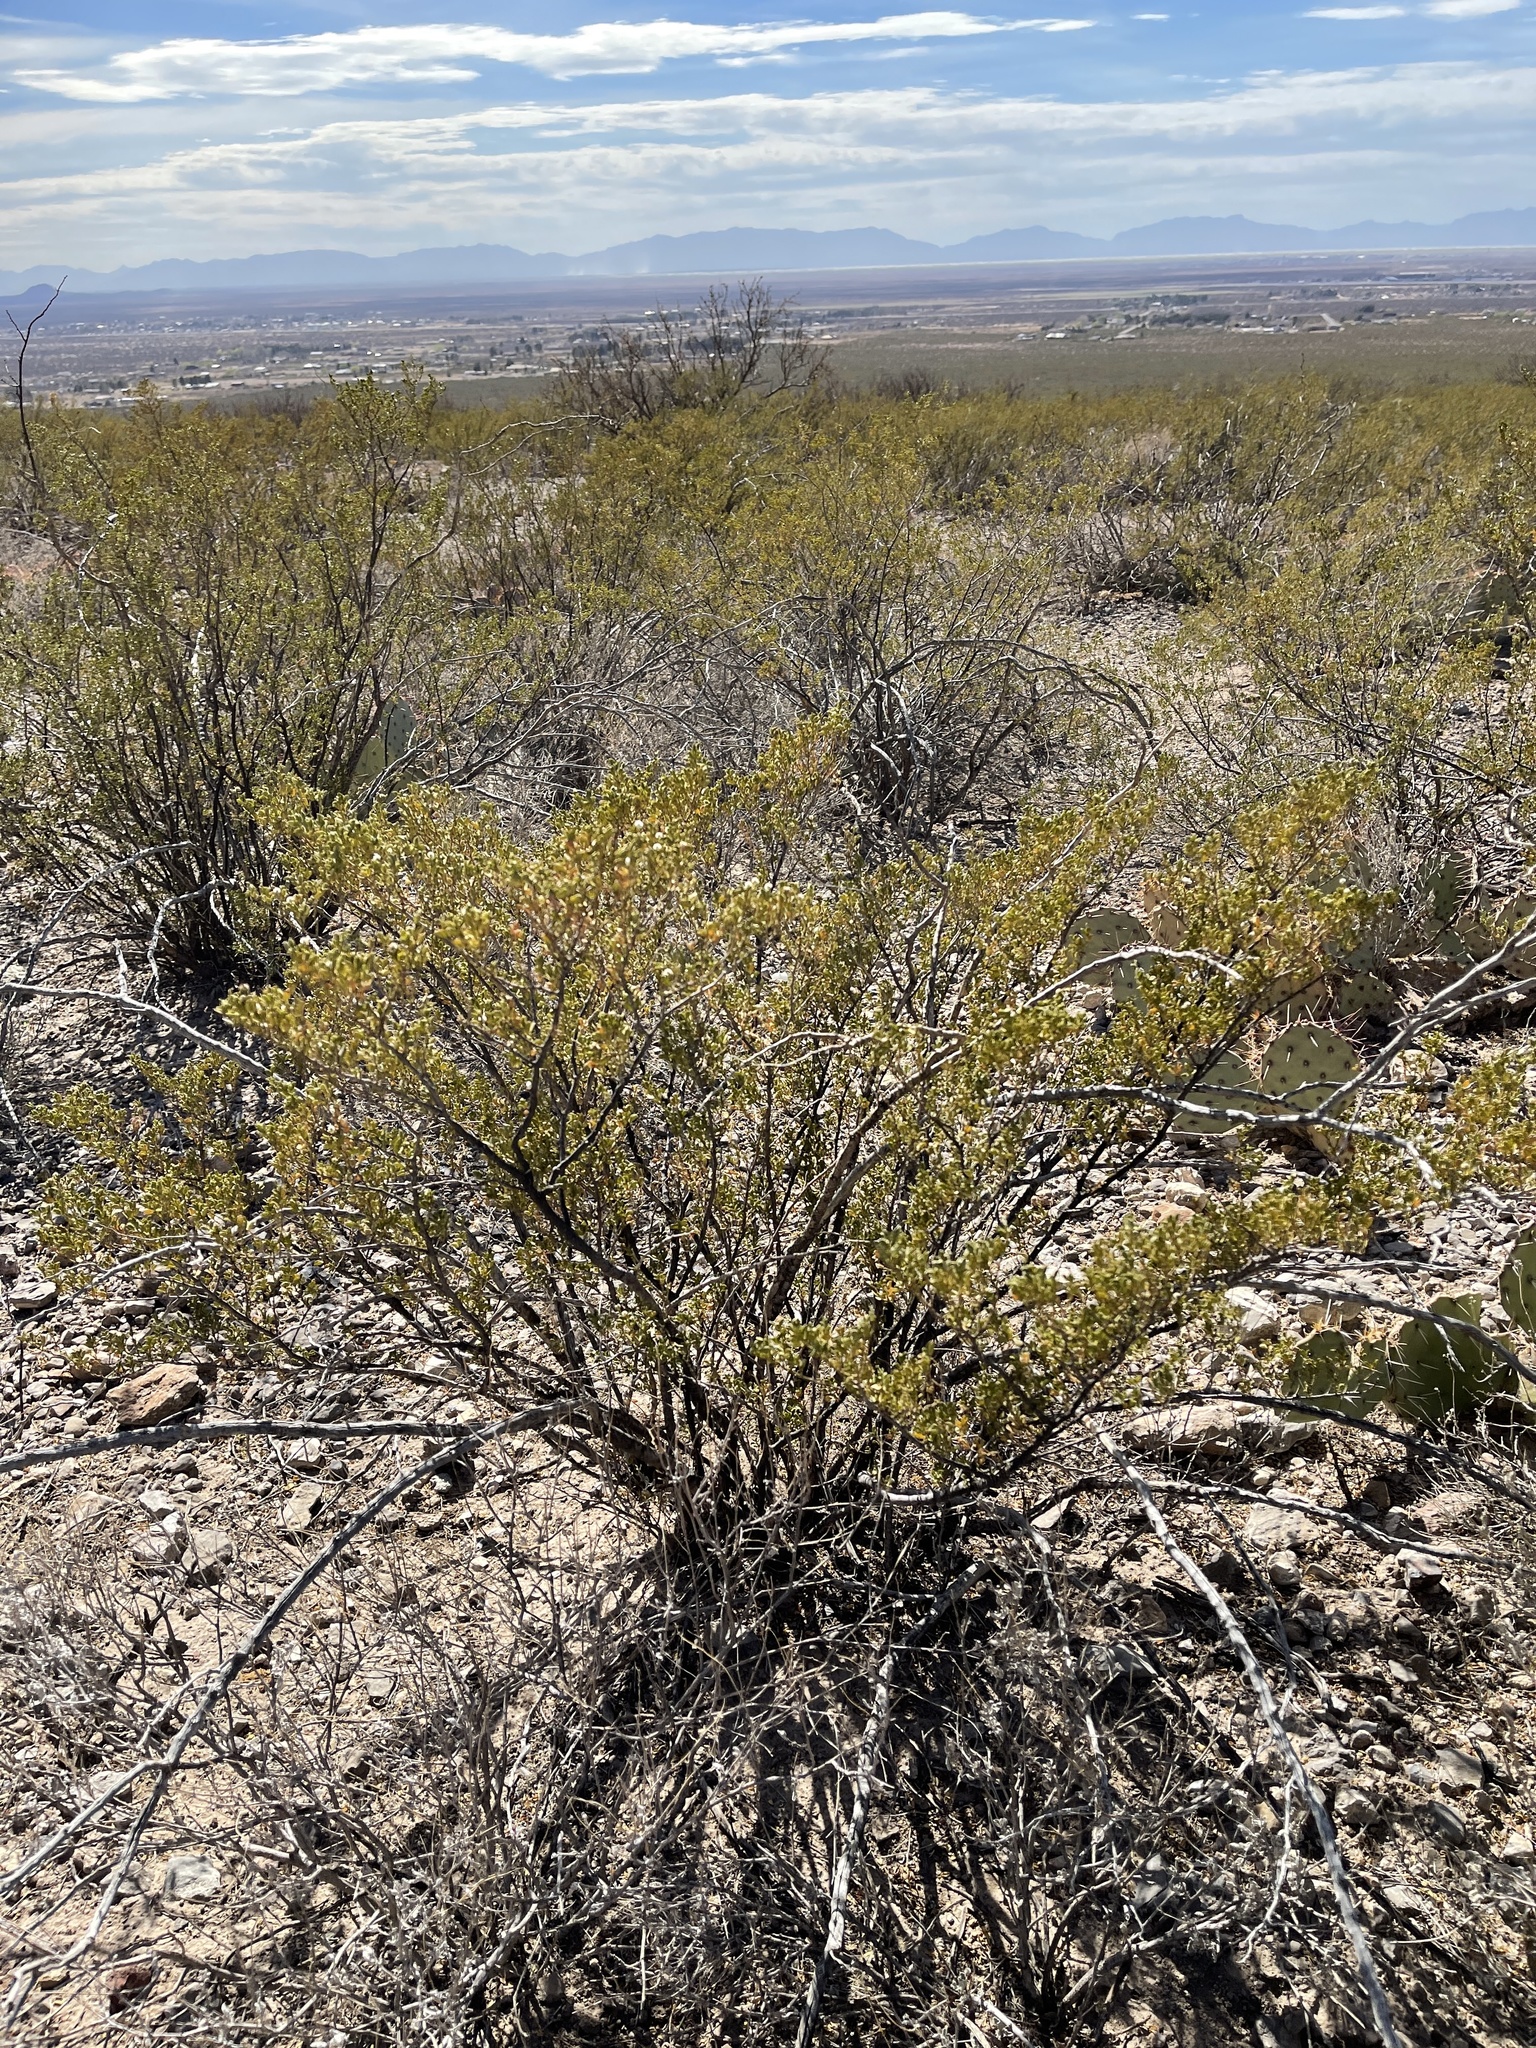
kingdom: Plantae
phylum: Tracheophyta
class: Magnoliopsida
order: Zygophyllales
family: Zygophyllaceae
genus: Larrea
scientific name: Larrea tridentata
